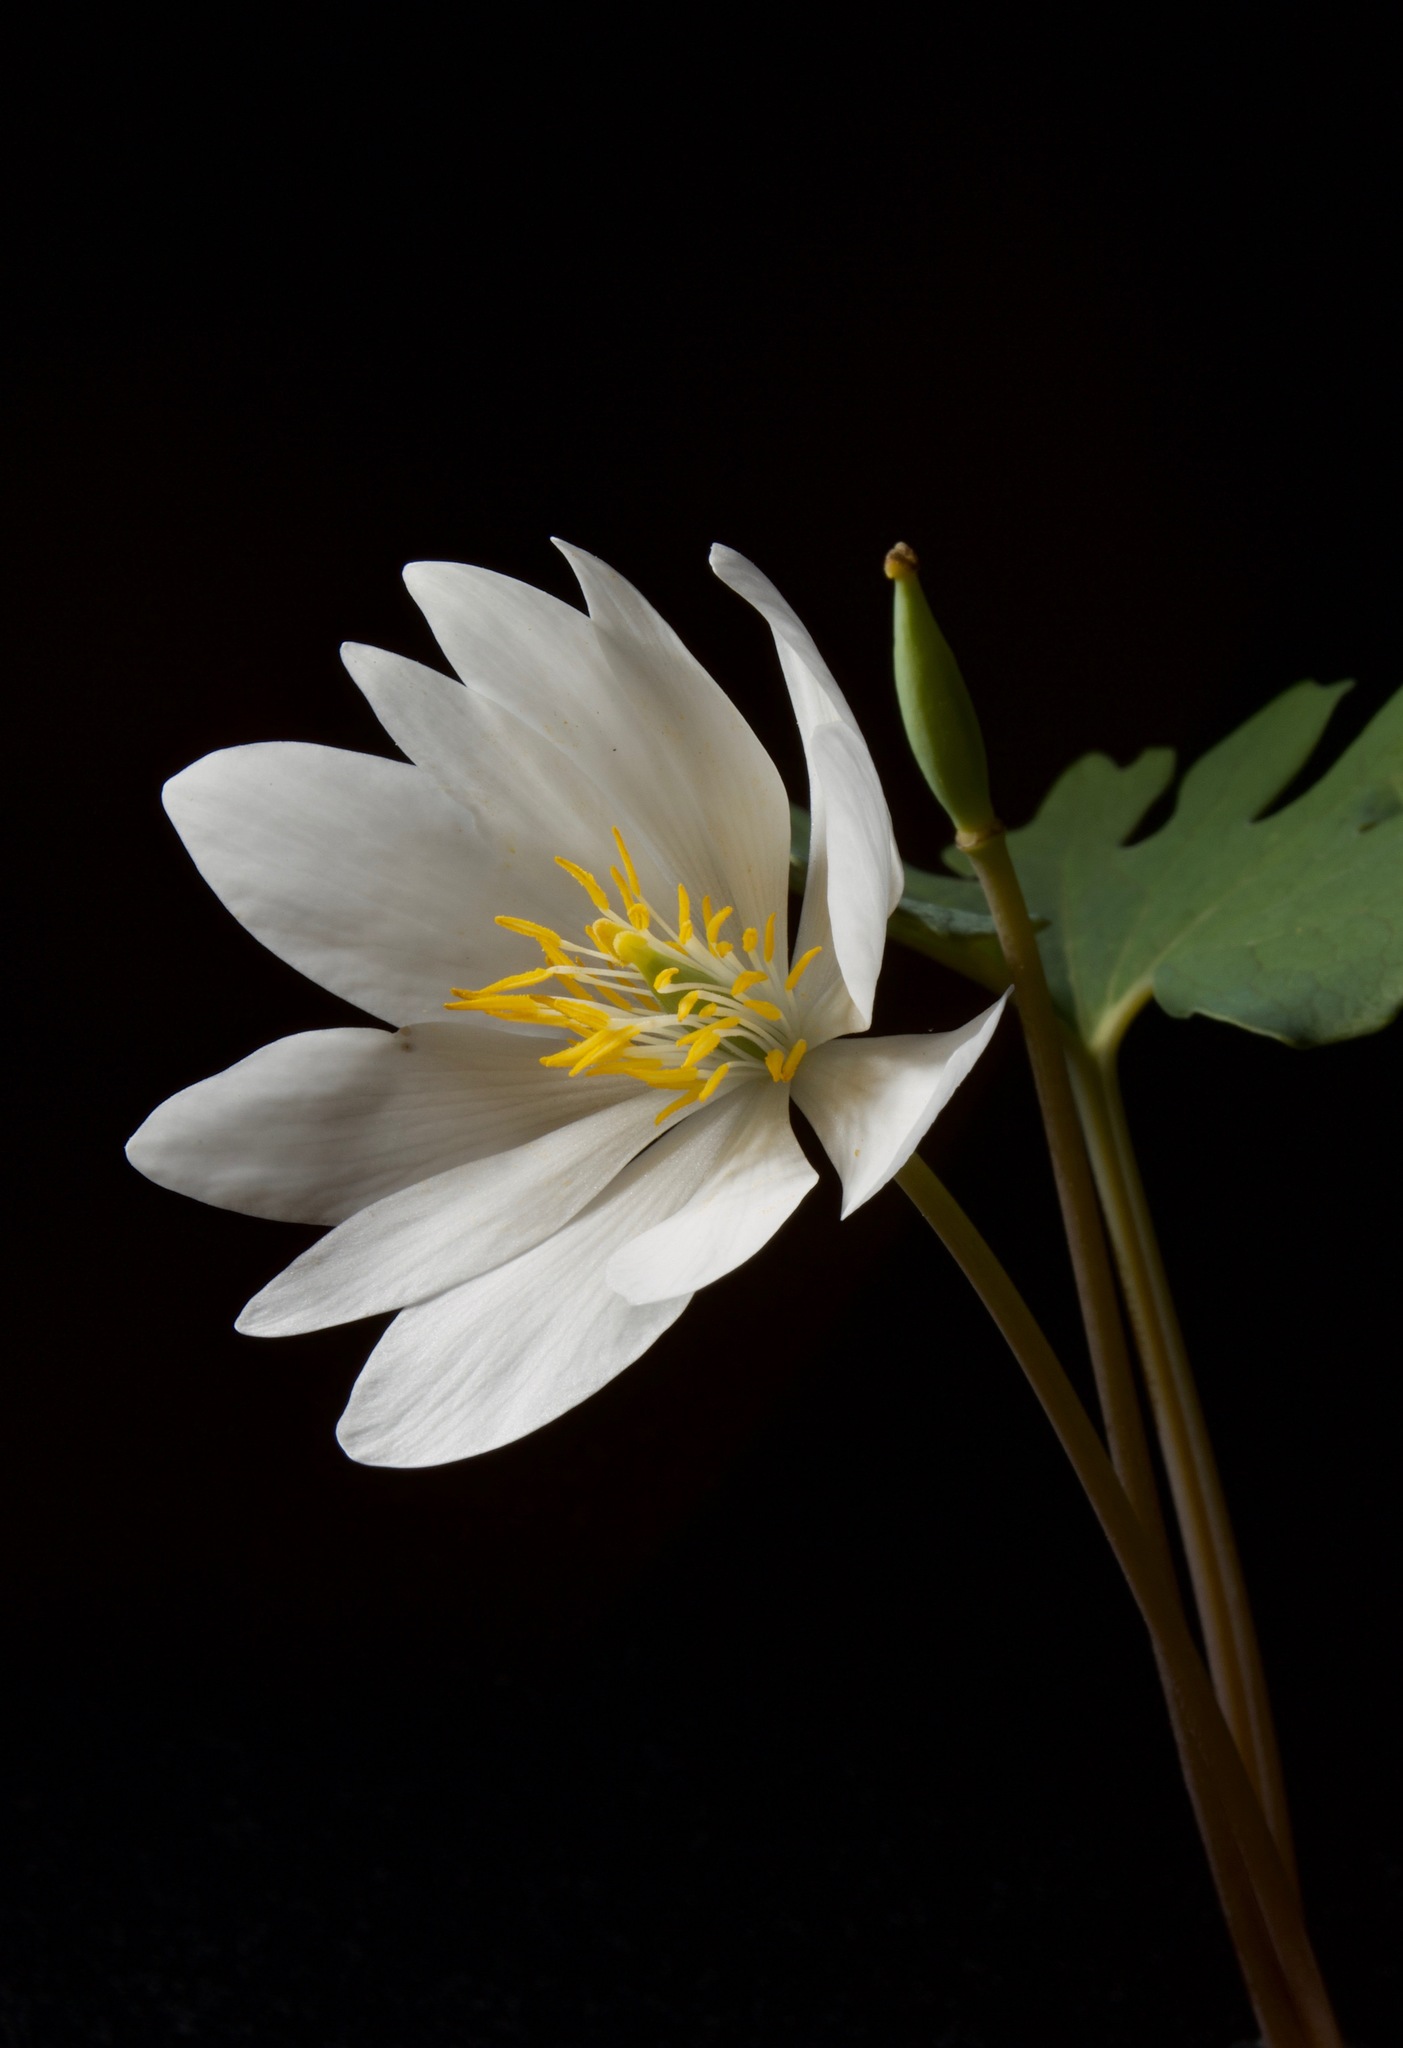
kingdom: Plantae
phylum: Tracheophyta
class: Magnoliopsida
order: Ranunculales
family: Papaveraceae
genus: Sanguinaria
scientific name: Sanguinaria canadensis
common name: Bloodroot
